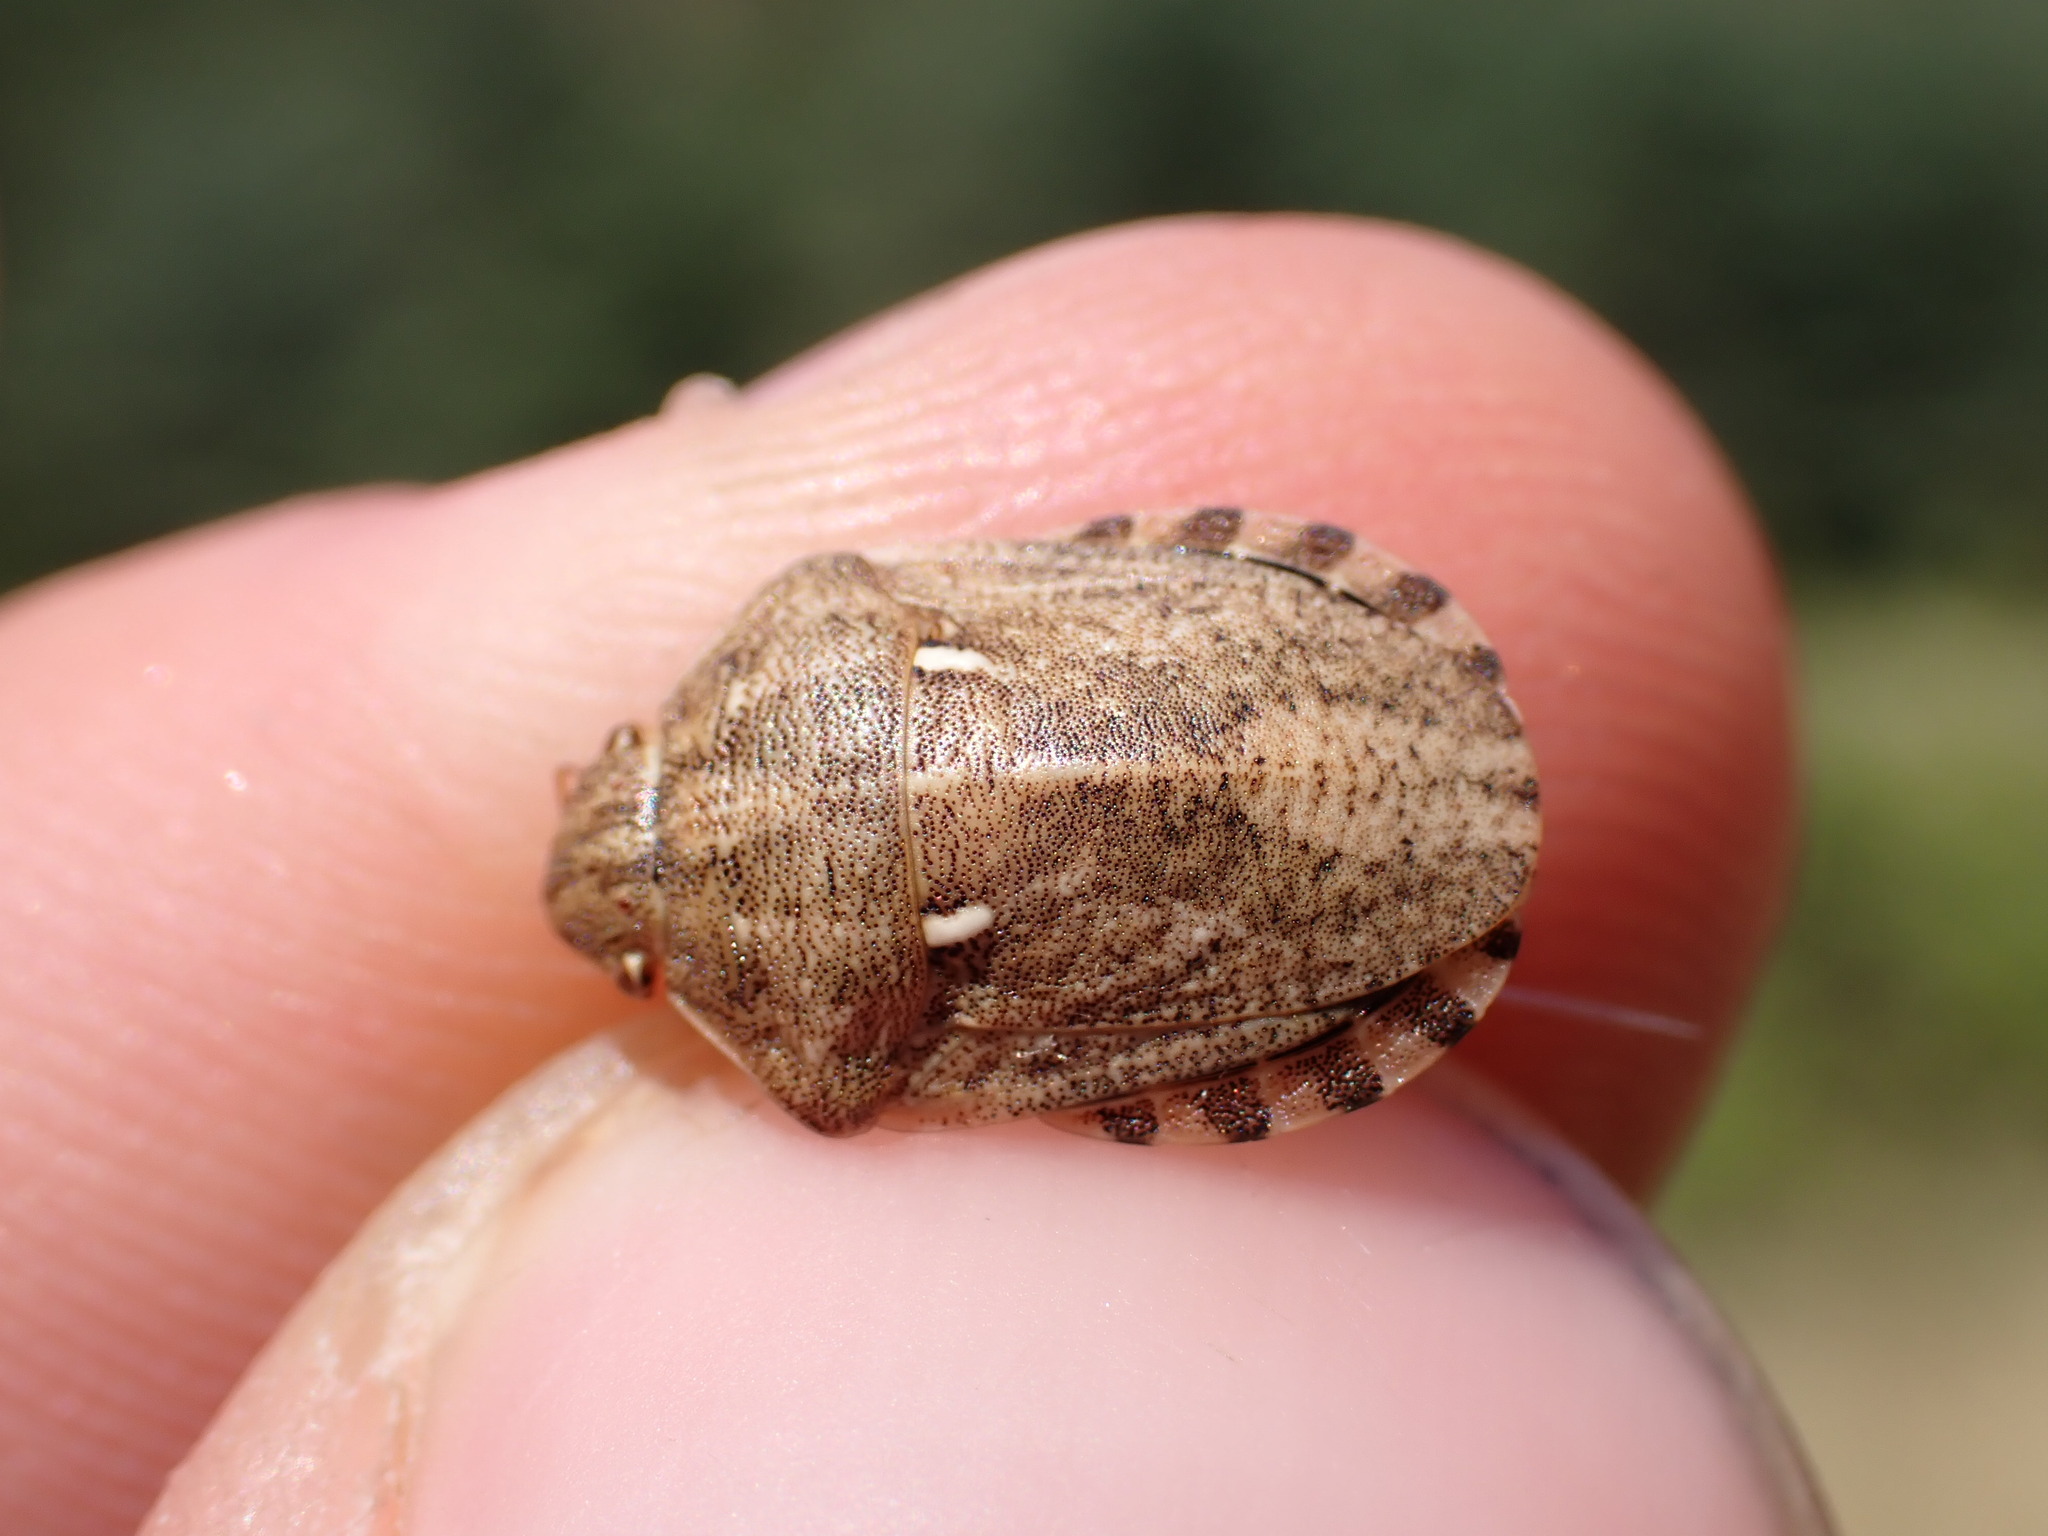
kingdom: Animalia
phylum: Arthropoda
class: Insecta
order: Hemiptera
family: Scutelleridae
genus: Eurygaster
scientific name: Eurygaster maura
